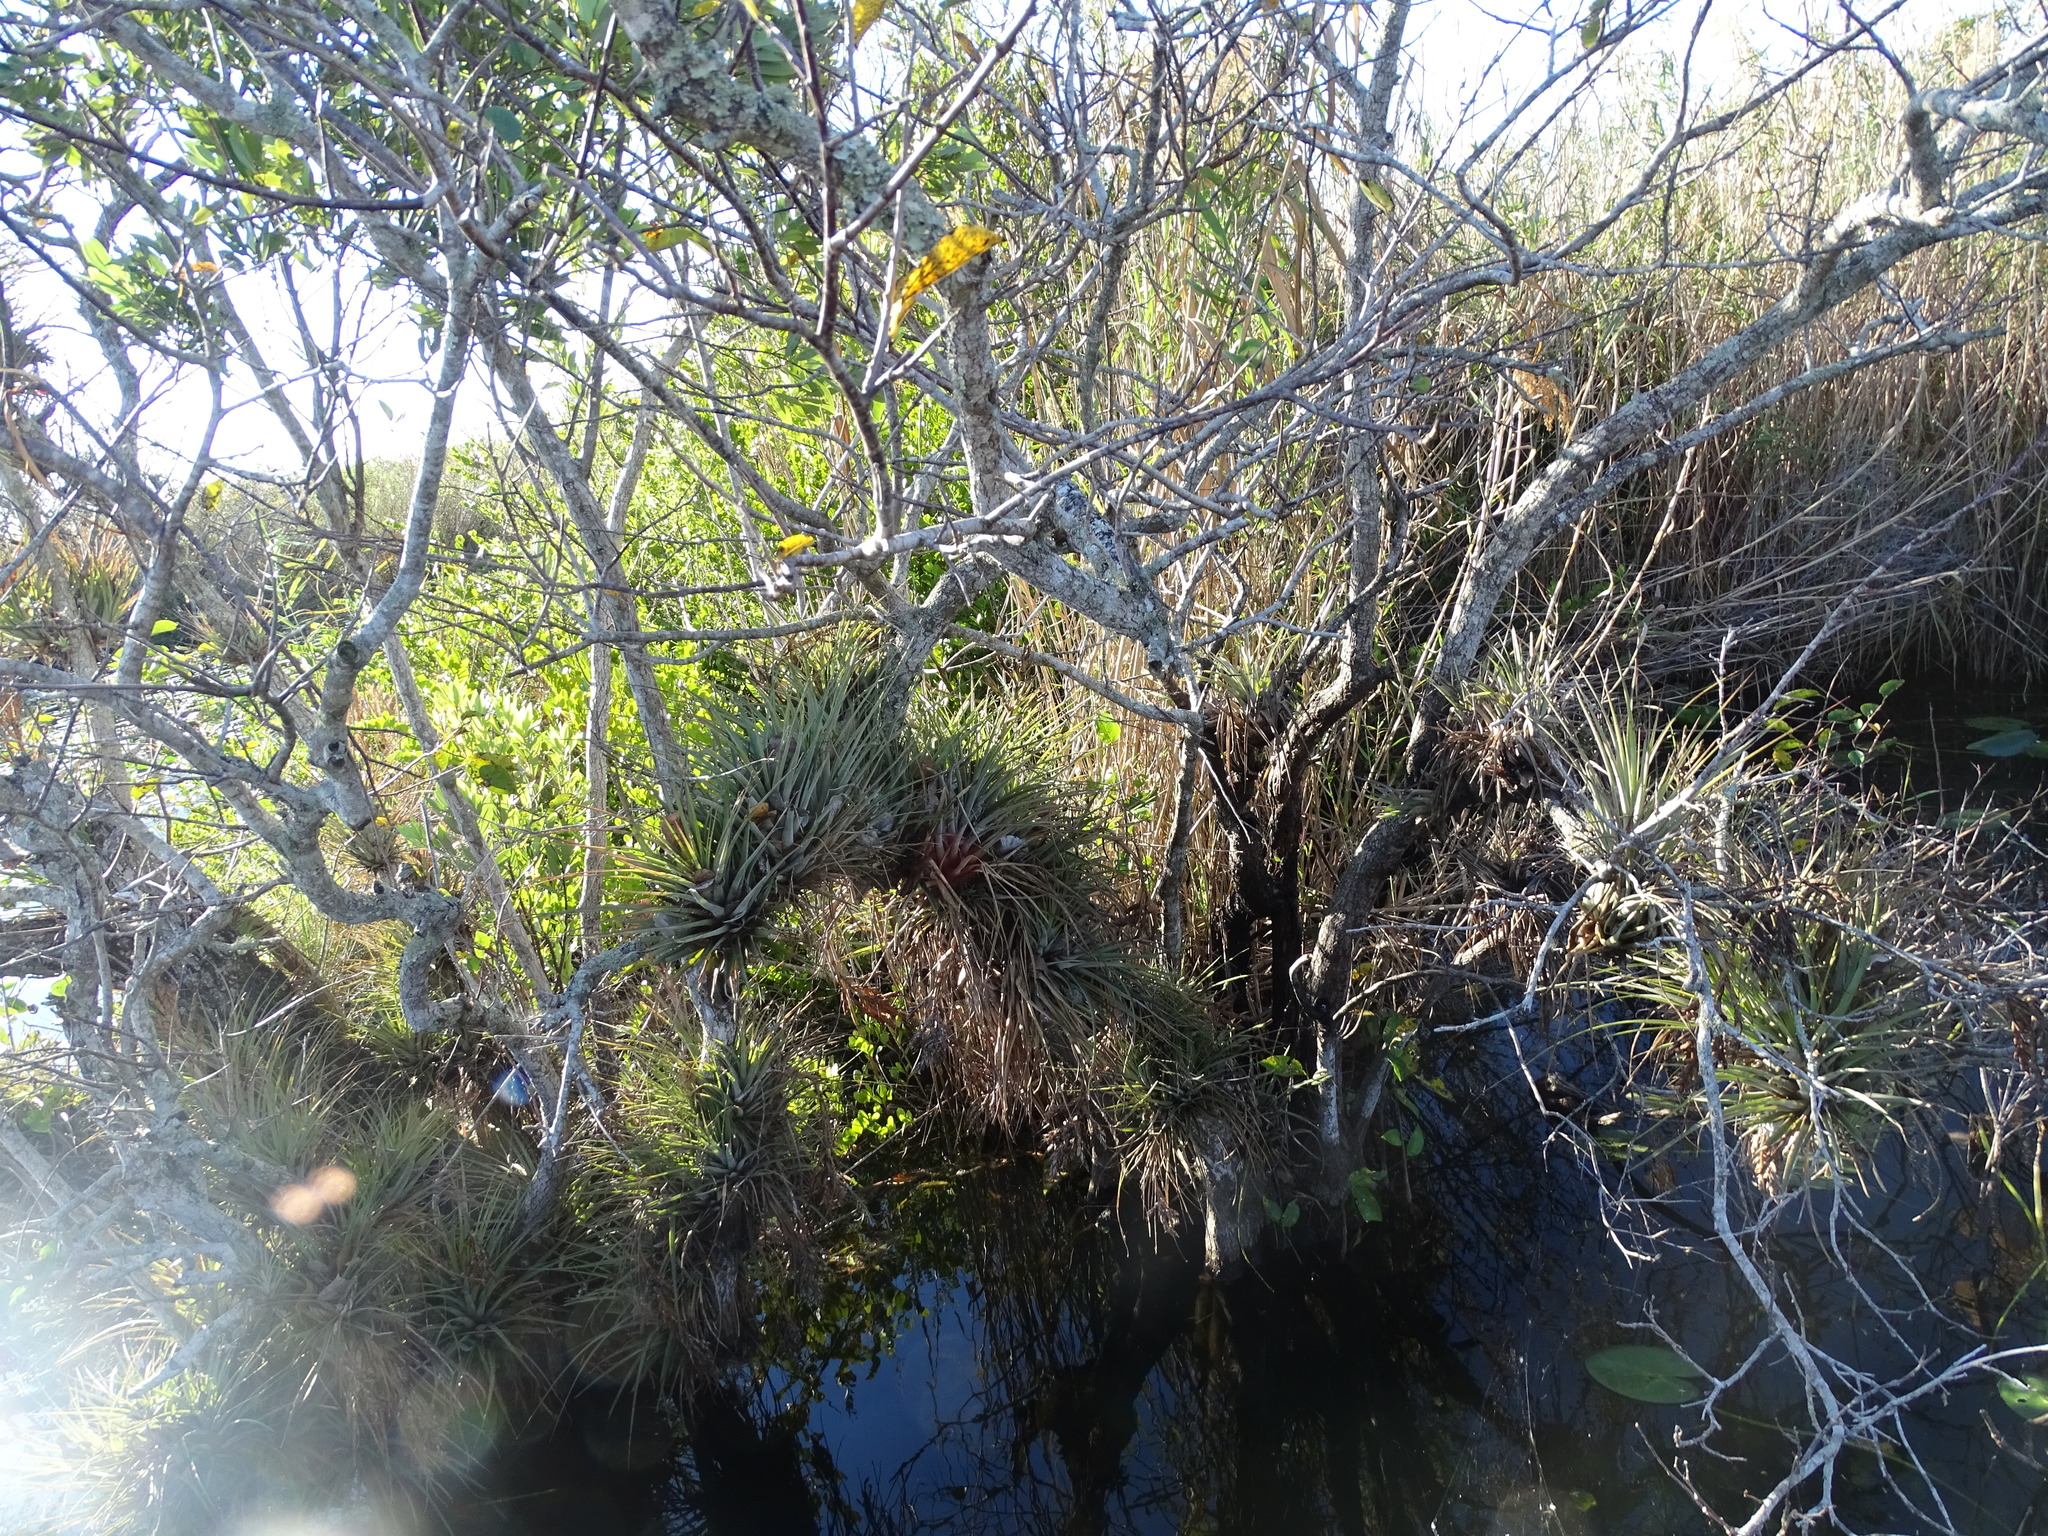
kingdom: Plantae
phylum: Tracheophyta
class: Liliopsida
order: Poales
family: Bromeliaceae
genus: Tillandsia
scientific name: Tillandsia fasciculata
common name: Giant airplant
